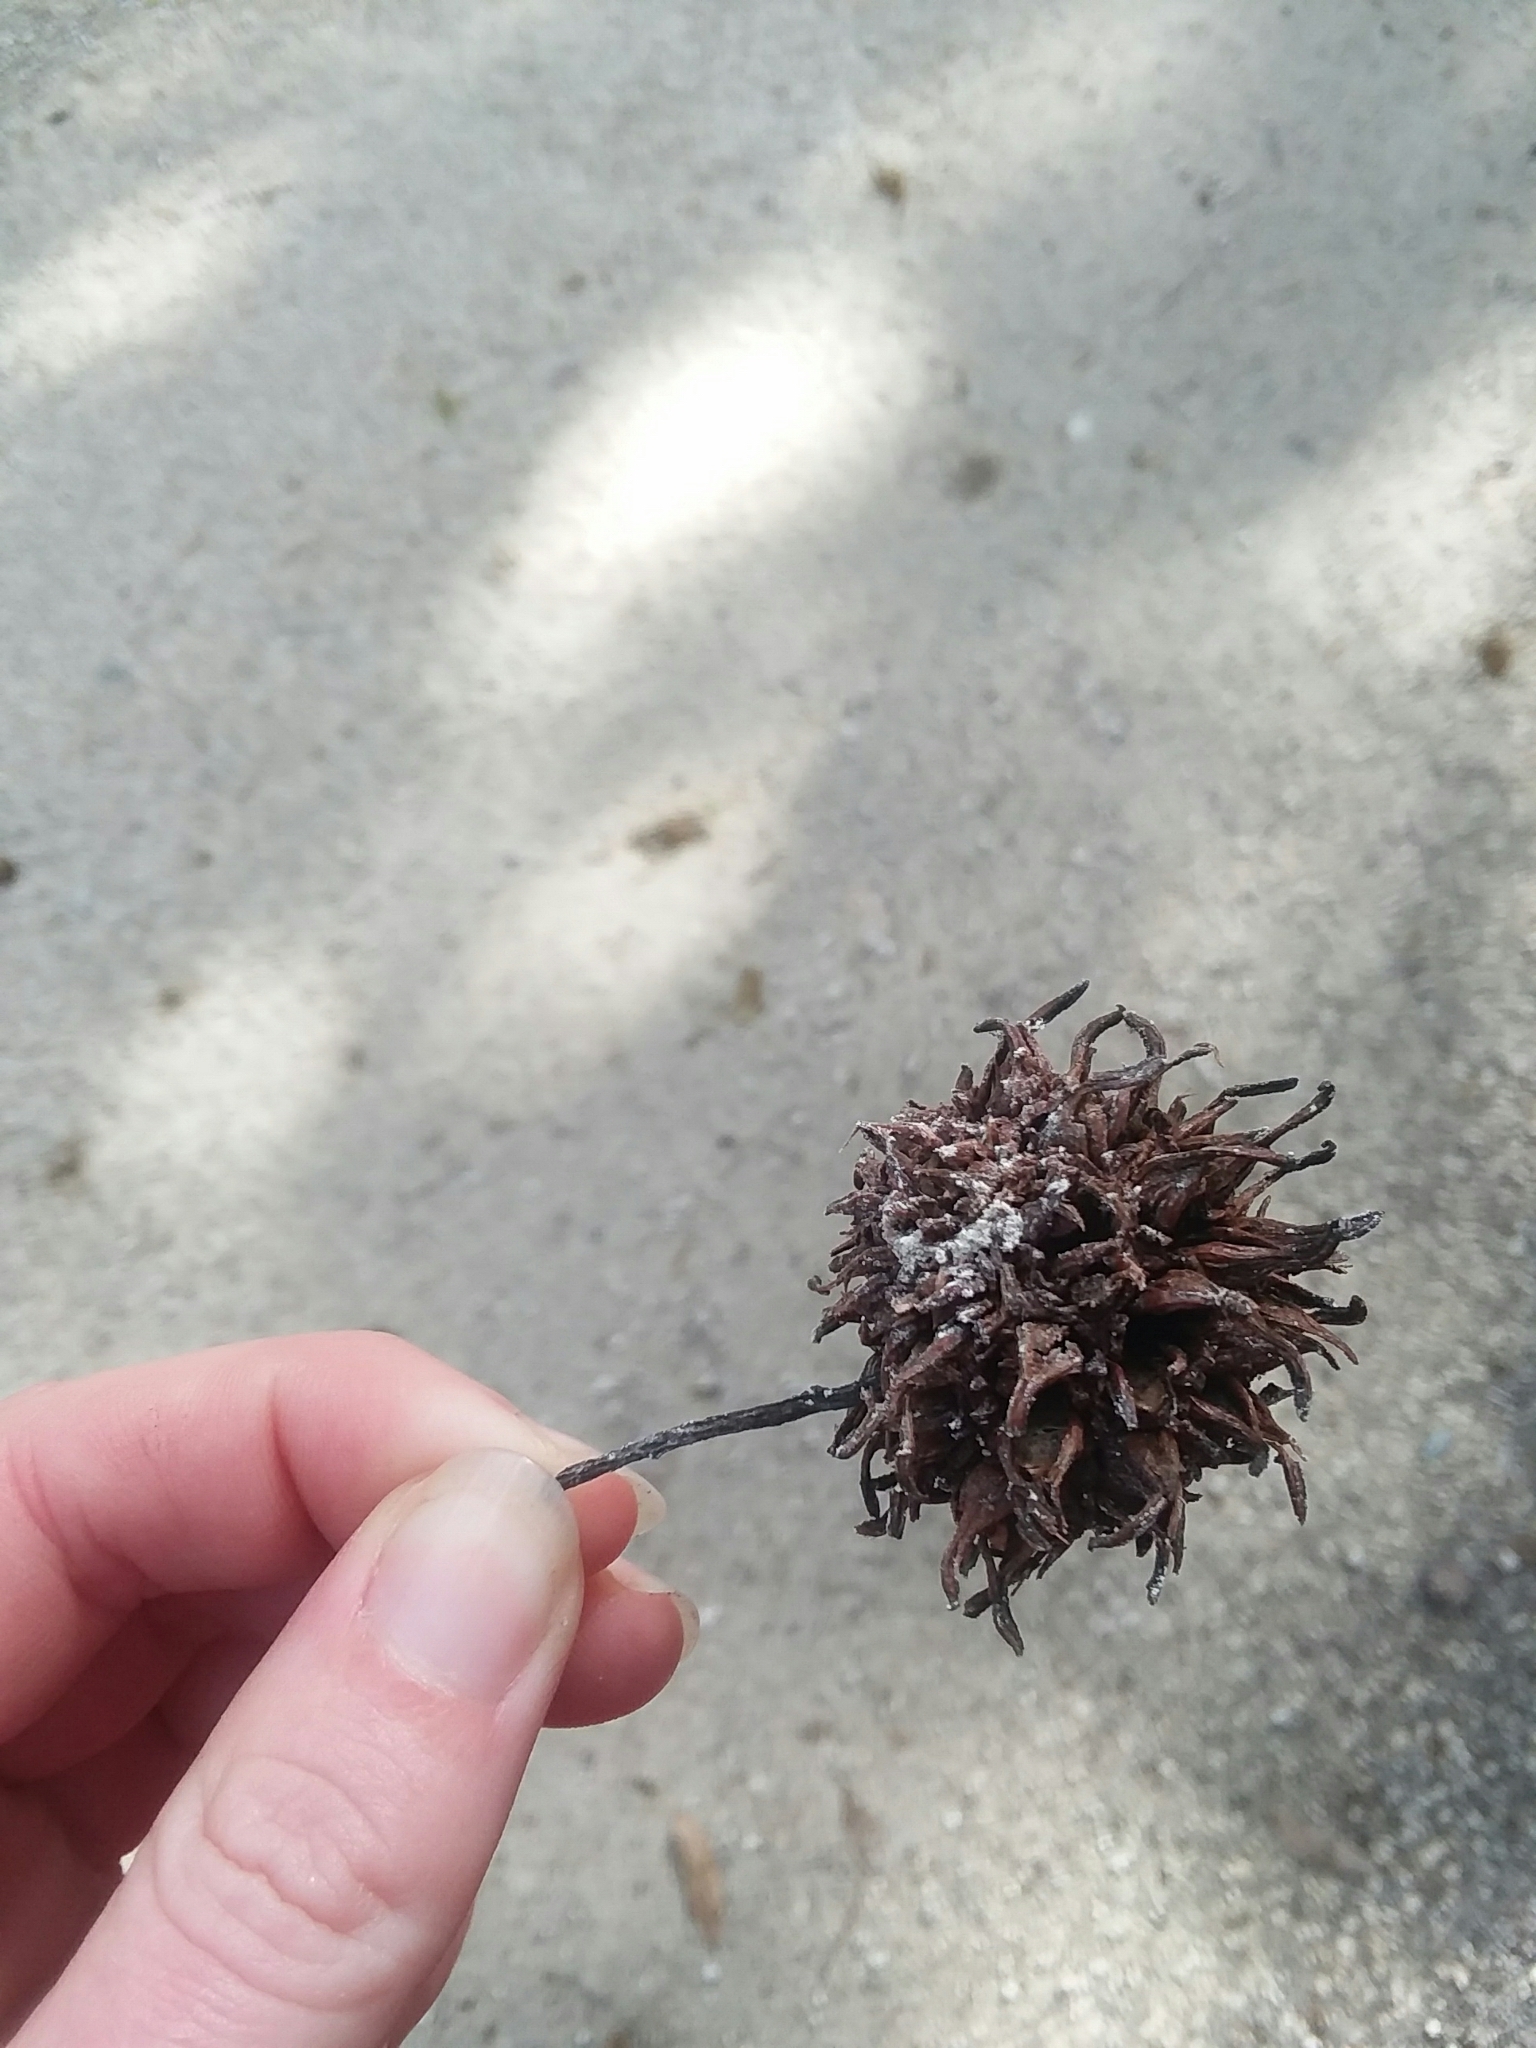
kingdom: Plantae
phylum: Tracheophyta
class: Magnoliopsida
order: Saxifragales
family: Altingiaceae
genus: Liquidambar
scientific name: Liquidambar styraciflua
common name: Sweet gum
